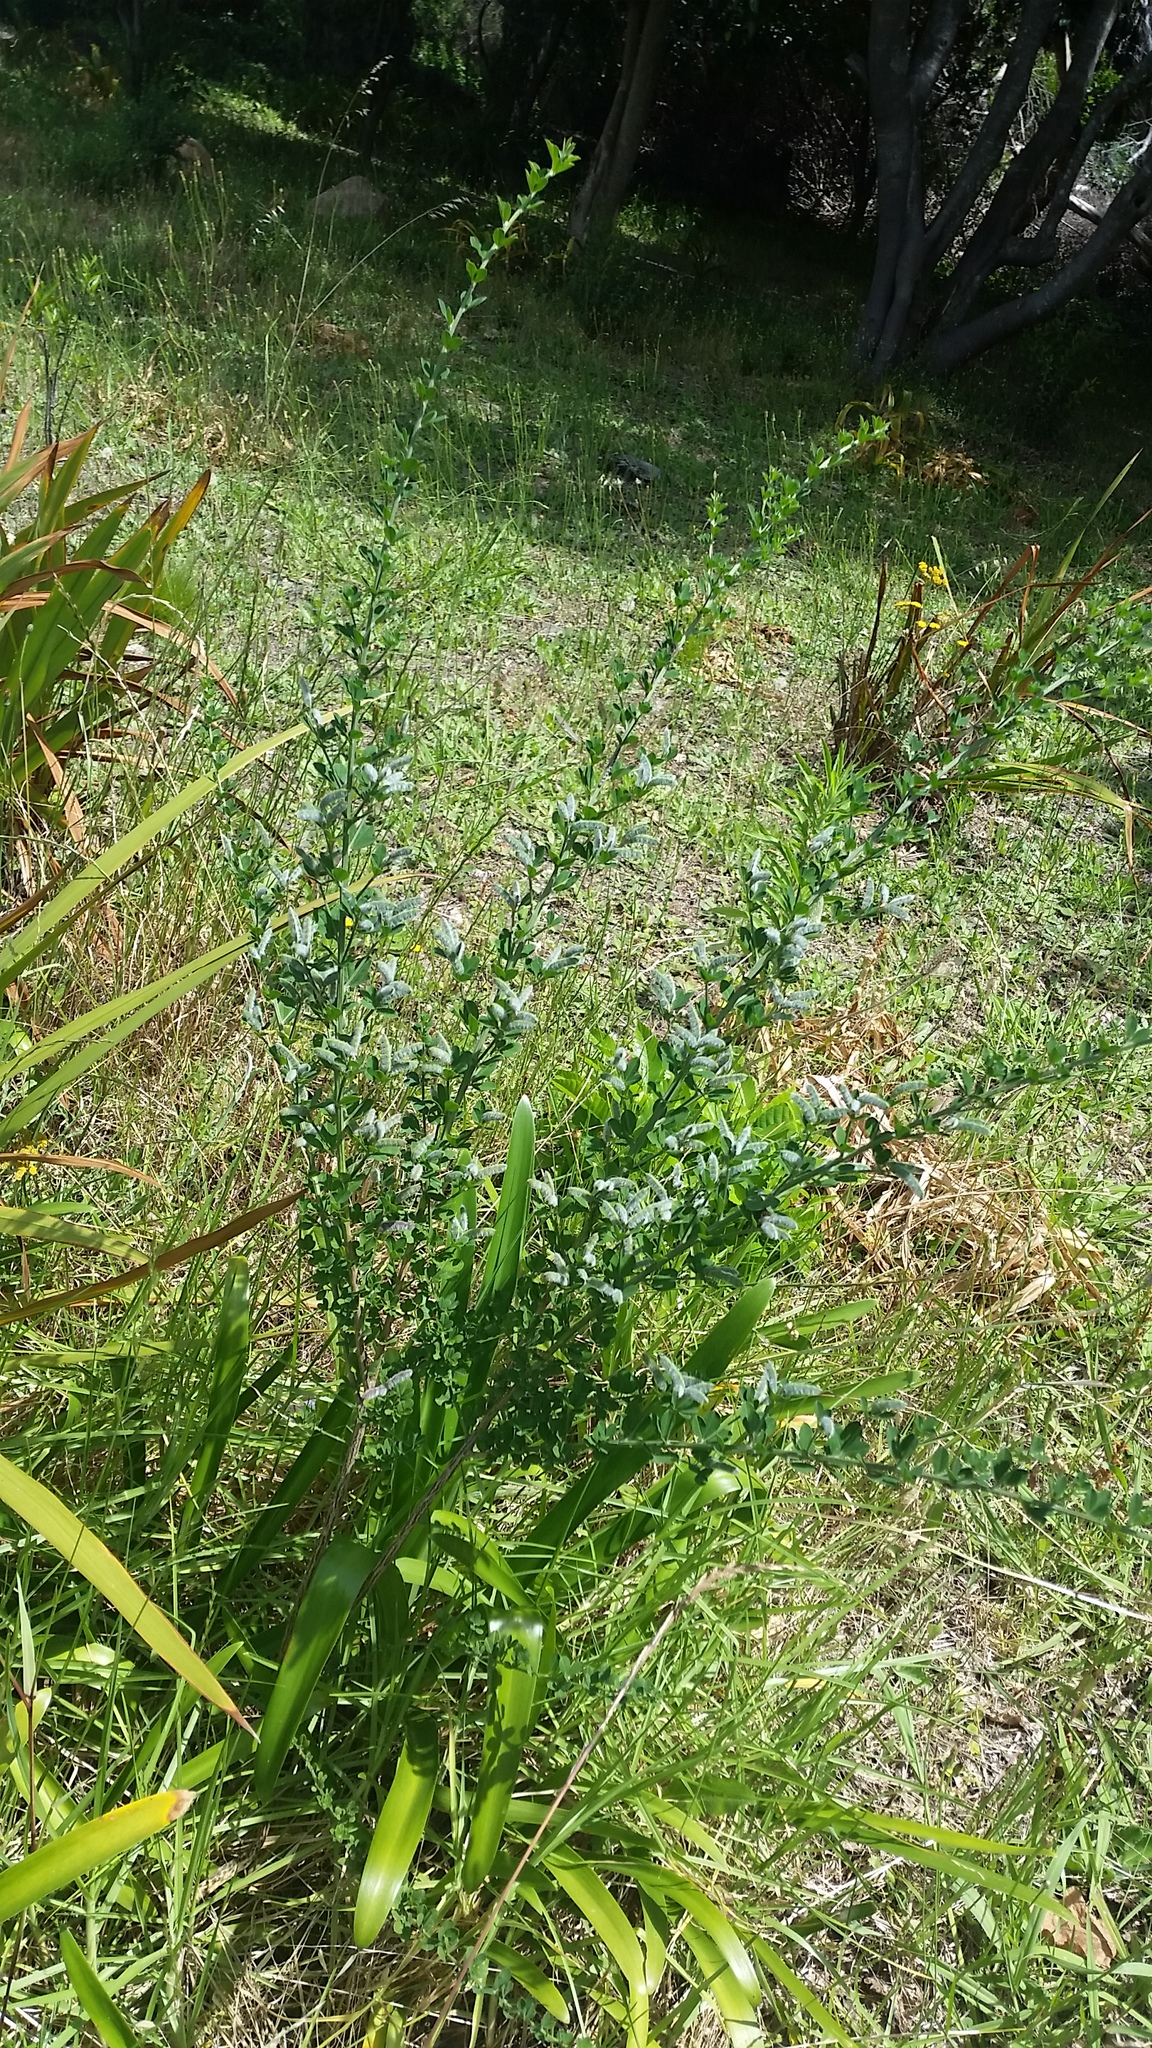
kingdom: Plantae
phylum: Tracheophyta
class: Magnoliopsida
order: Fabales
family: Fabaceae
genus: Genista
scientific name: Genista monspessulana
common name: Montpellier broom
